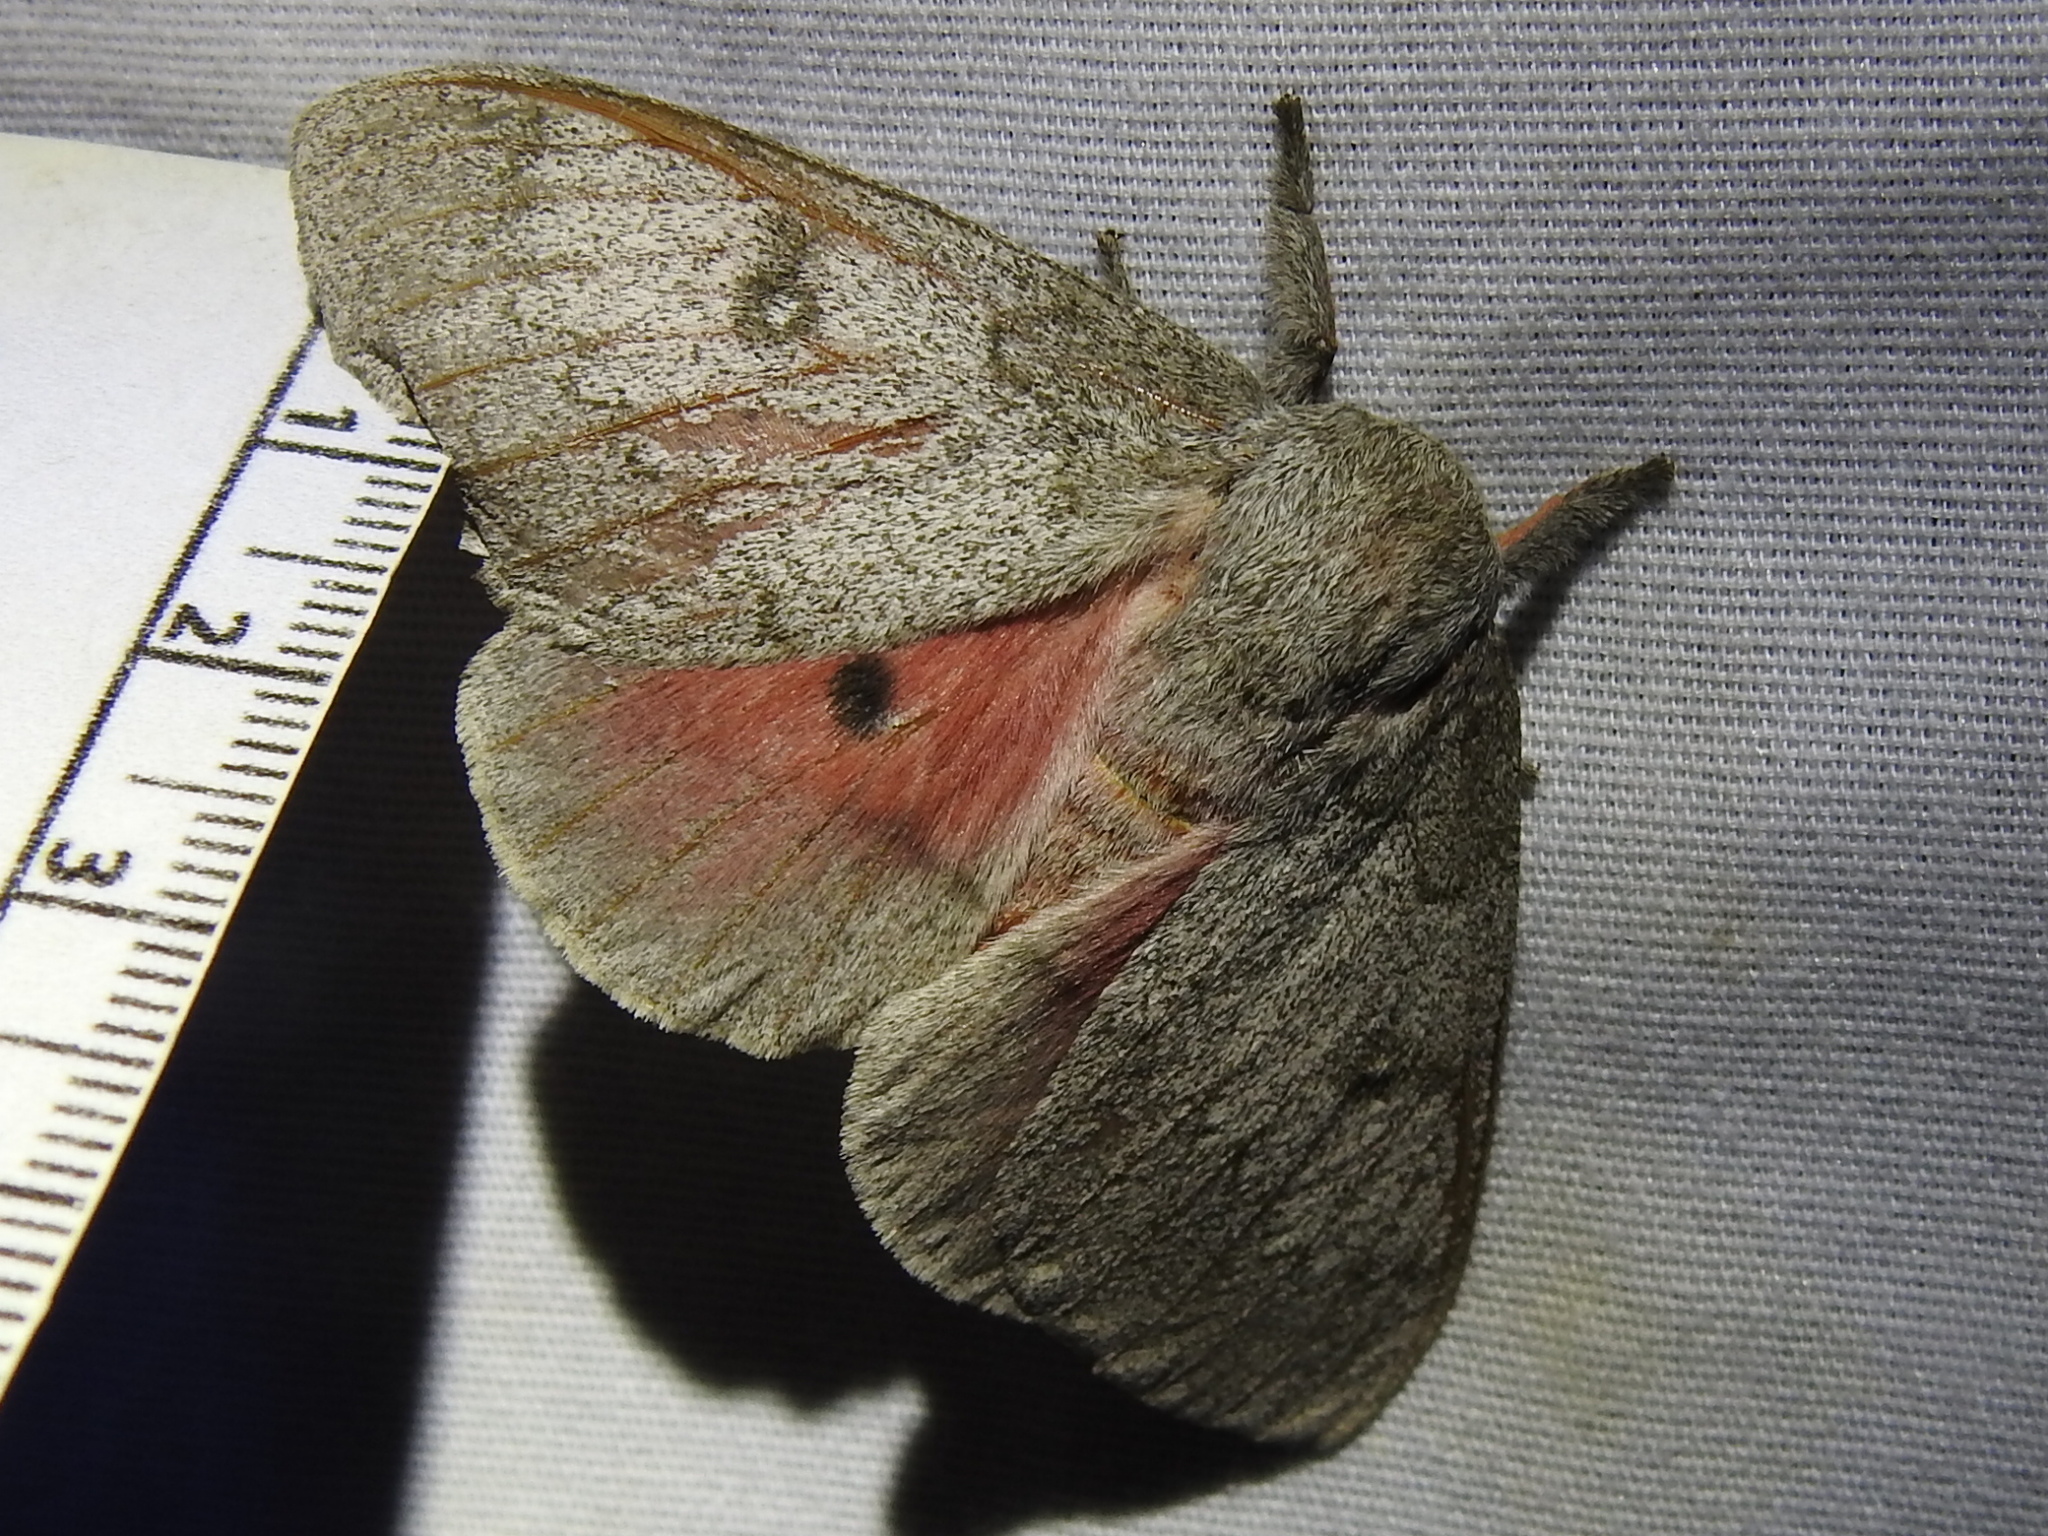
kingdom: Animalia
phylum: Arthropoda
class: Insecta
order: Lepidoptera
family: Saturniidae
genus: Syssphinx
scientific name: Syssphinx heiligbrodti
